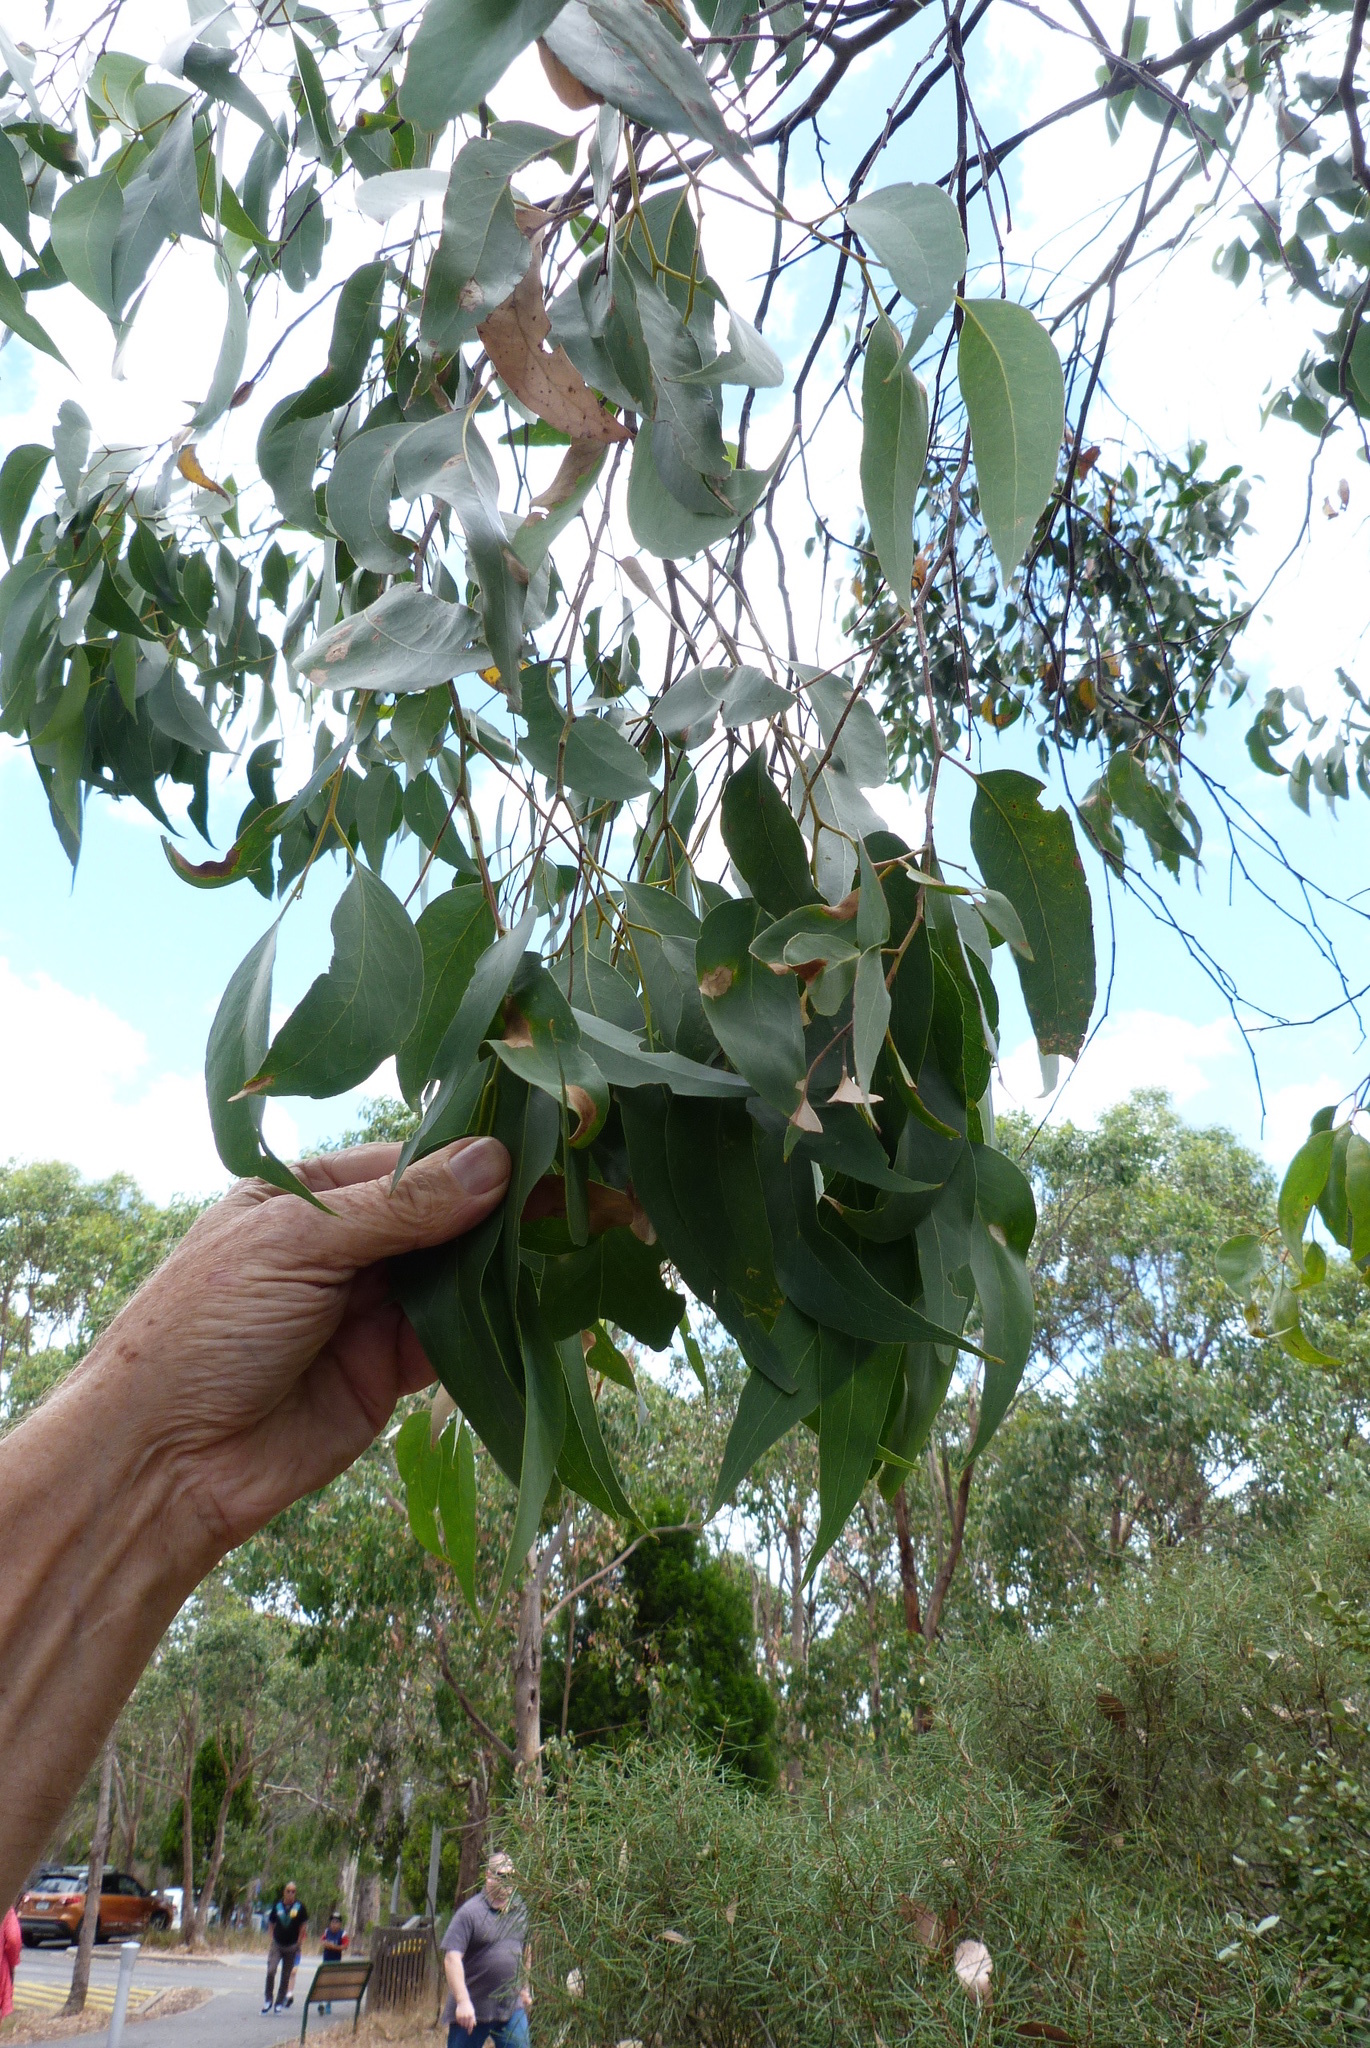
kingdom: Plantae
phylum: Tracheophyta
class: Magnoliopsida
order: Myrtales
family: Myrtaceae
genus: Eucalyptus
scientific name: Eucalyptus obliqua
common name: Messmate stringybark
